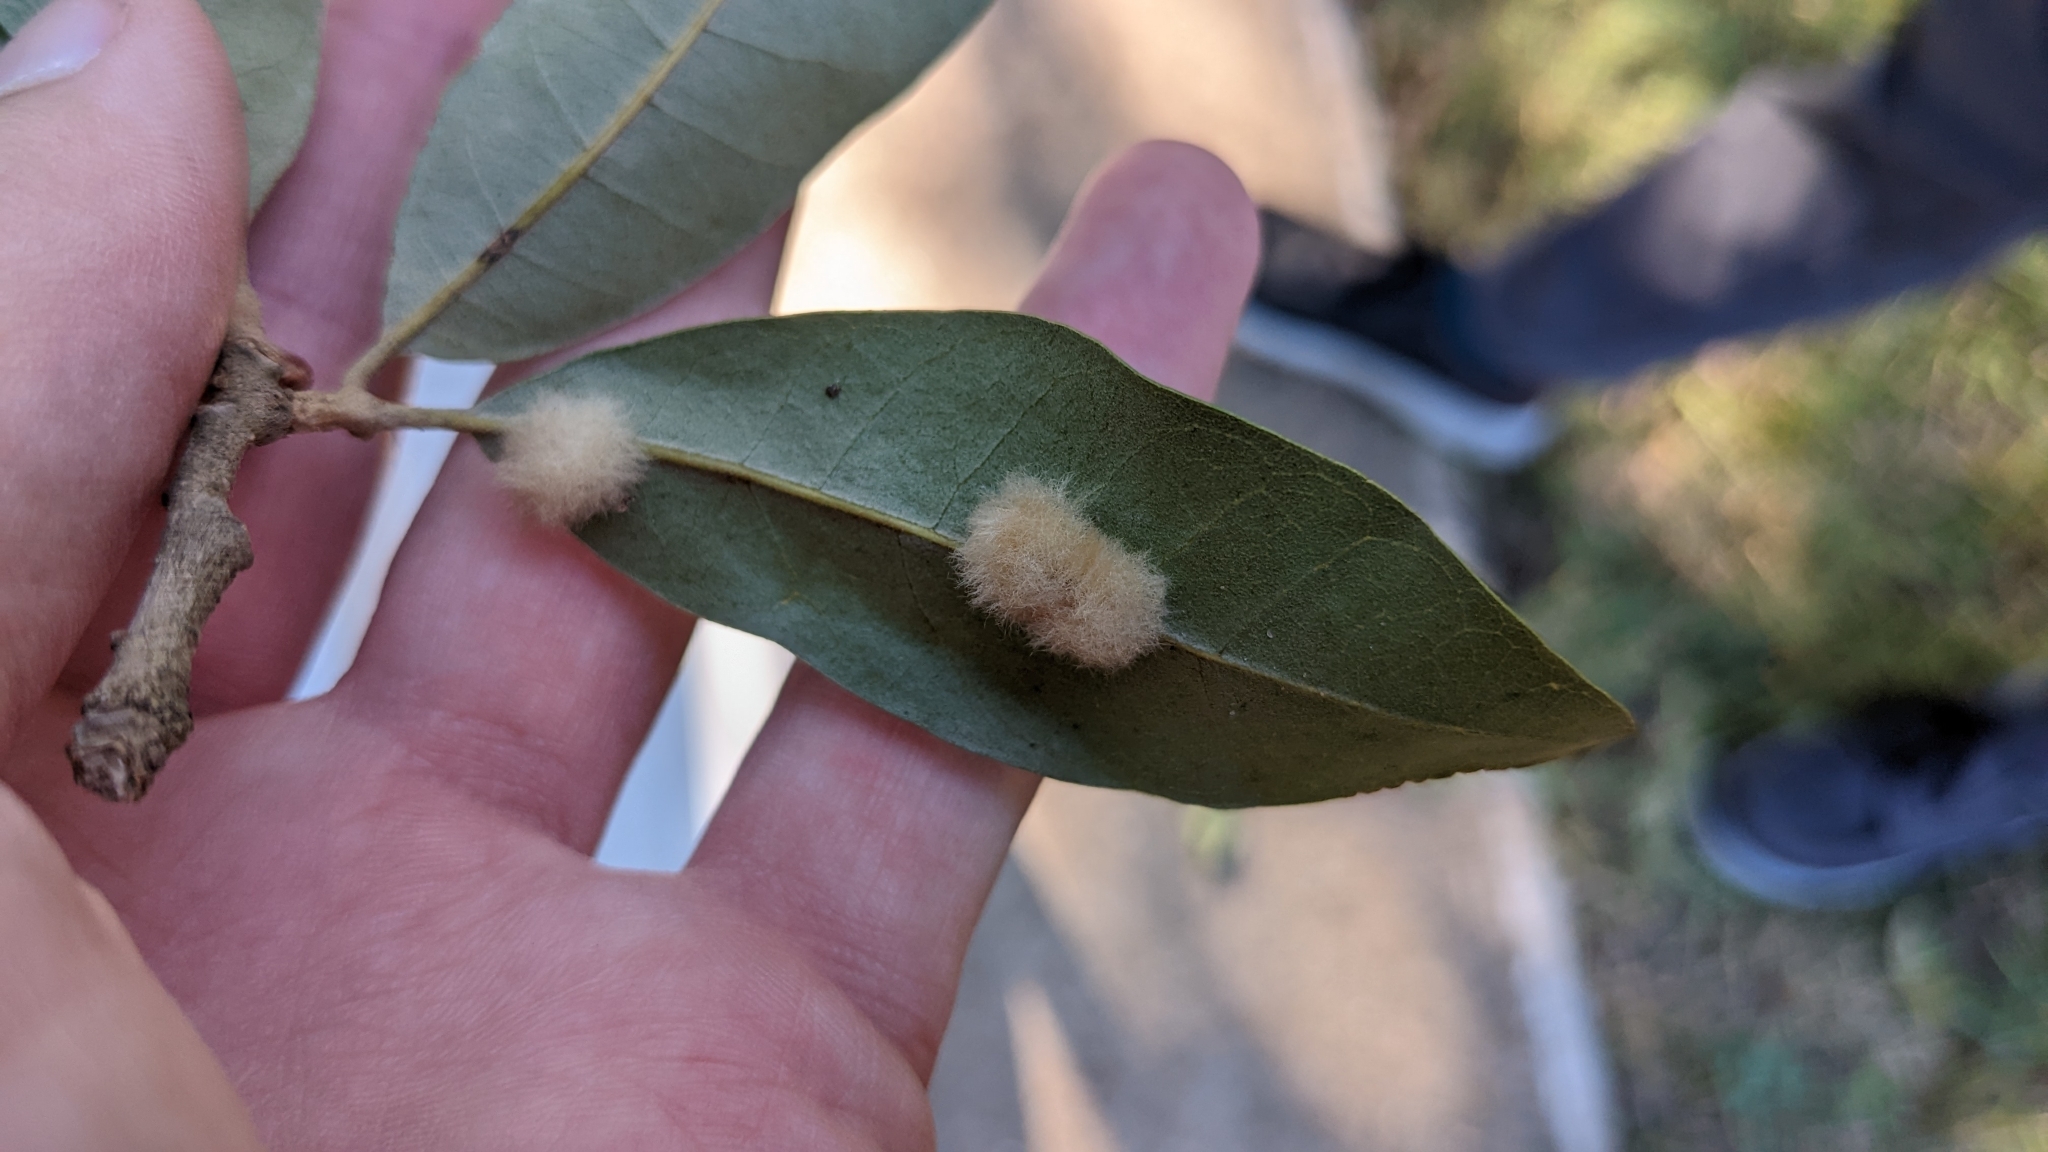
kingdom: Animalia
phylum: Arthropoda
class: Insecta
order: Hymenoptera
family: Cynipidae
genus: Andricus
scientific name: Andricus Druon quercuslanigerum
